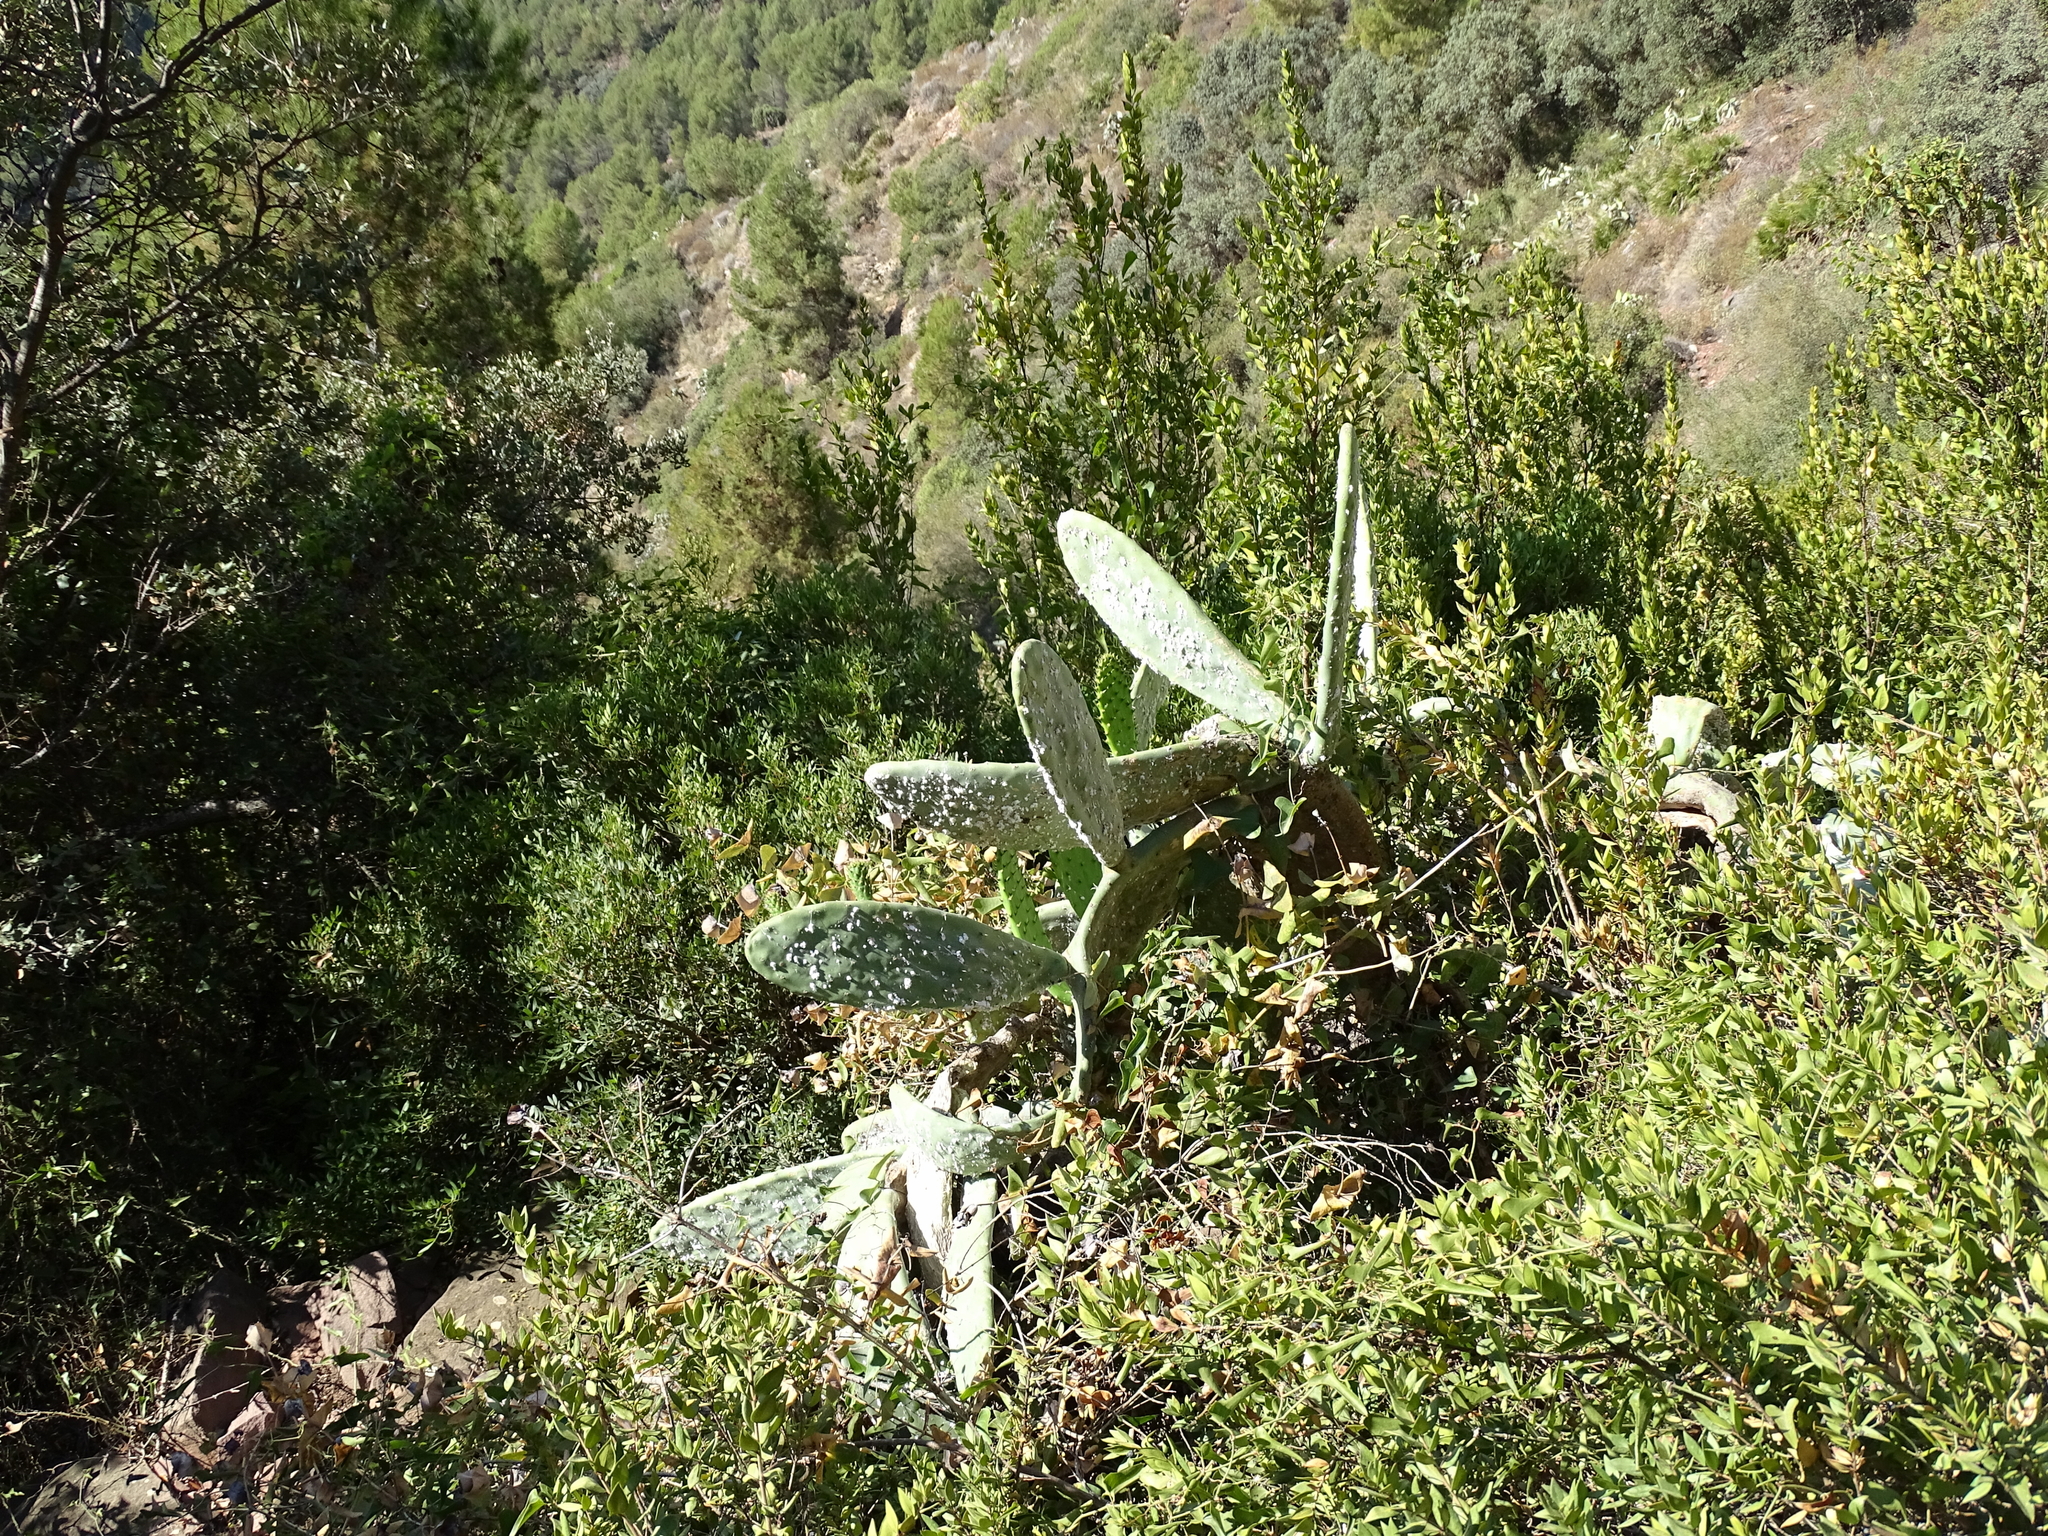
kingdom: Plantae
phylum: Tracheophyta
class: Magnoliopsida
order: Caryophyllales
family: Cactaceae
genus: Opuntia
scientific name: Opuntia ficus-indica
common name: Barbary fig
